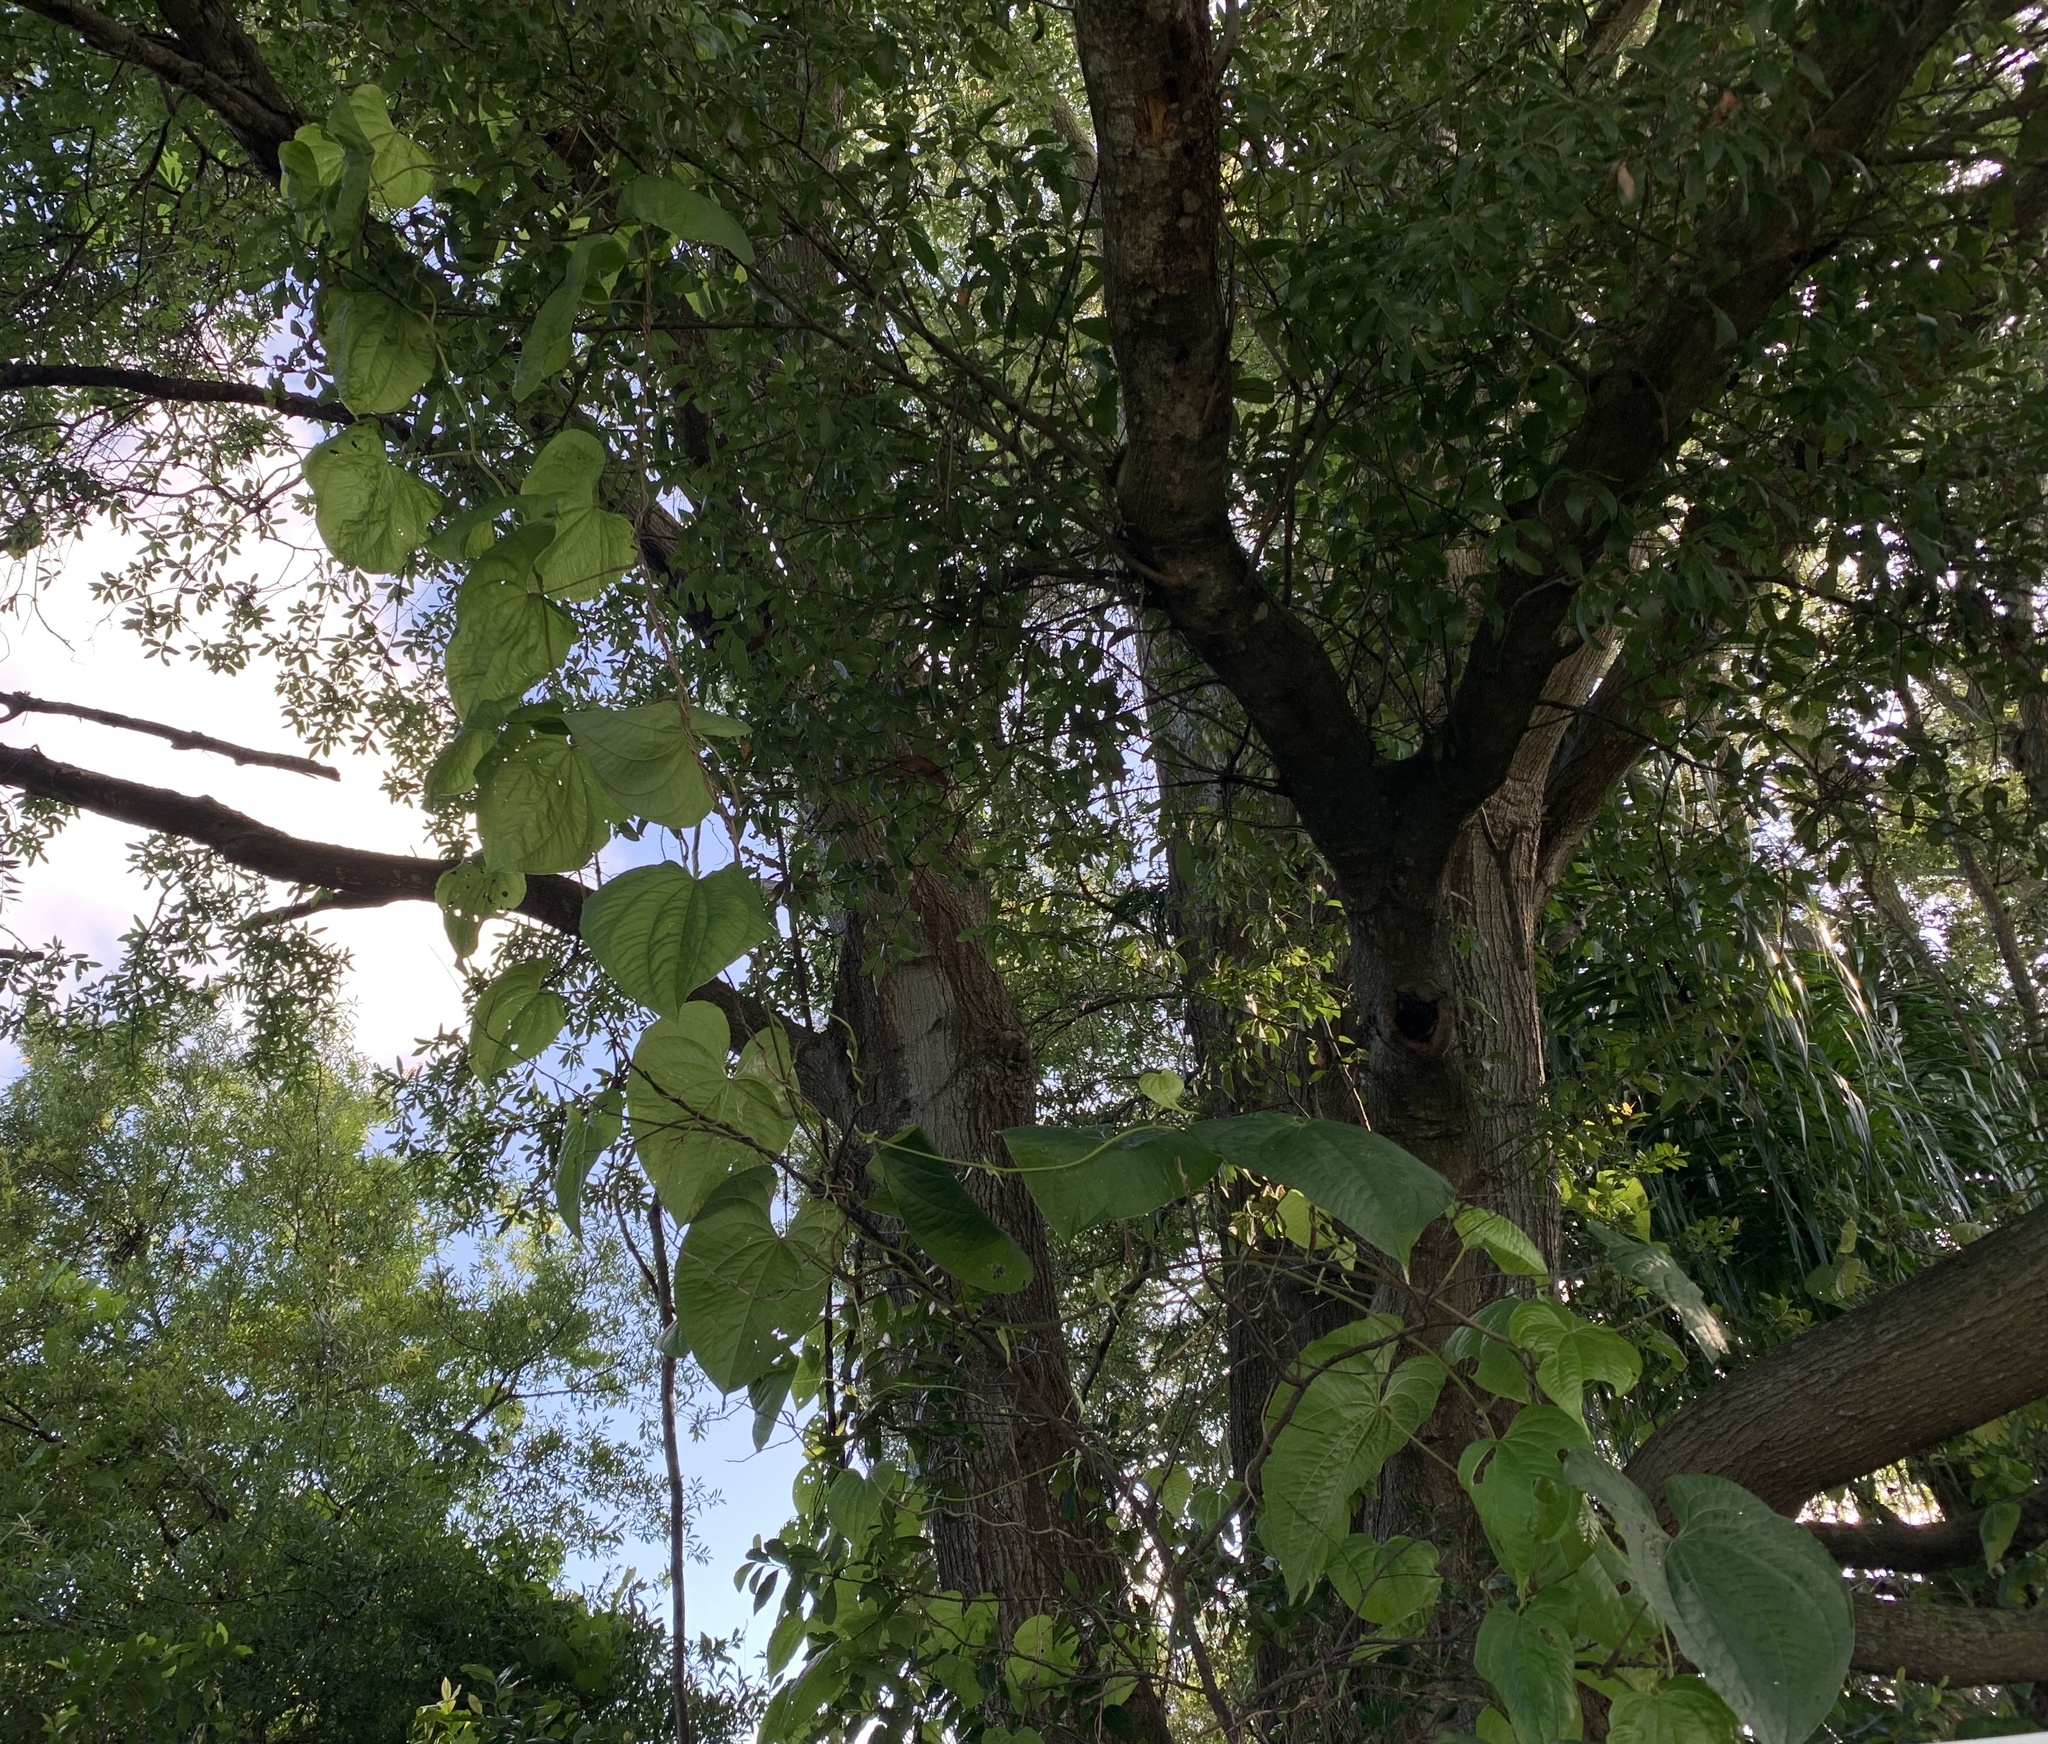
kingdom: Plantae
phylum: Tracheophyta
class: Liliopsida
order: Dioscoreales
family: Dioscoreaceae
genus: Dioscorea
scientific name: Dioscorea bulbifera
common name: Air yam
